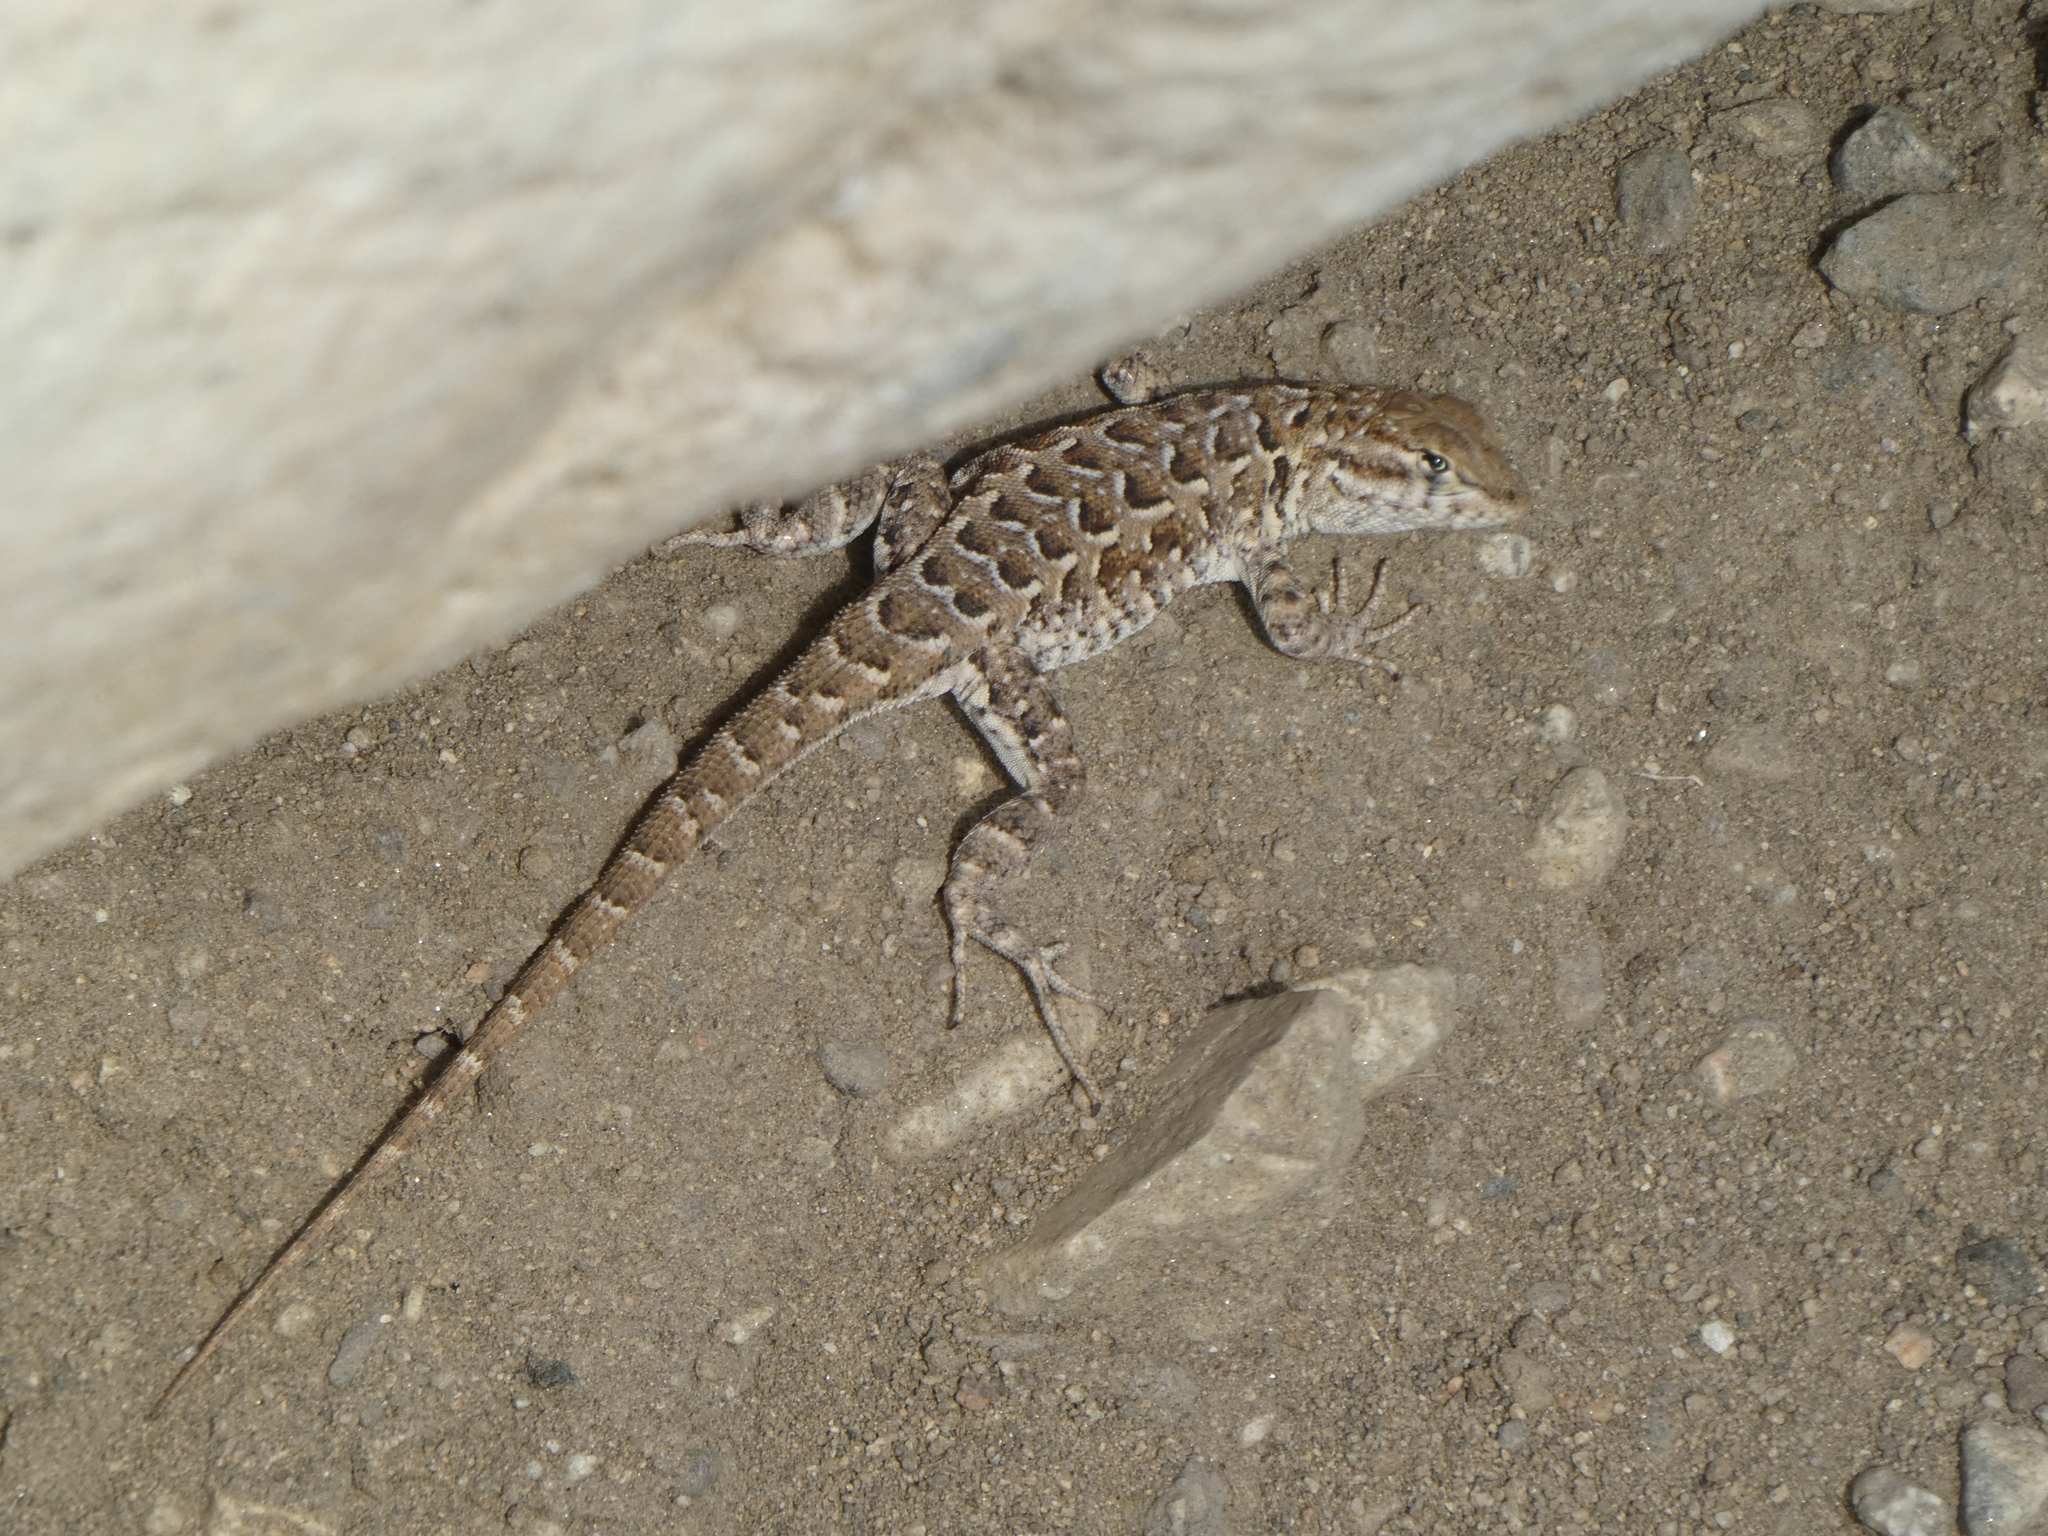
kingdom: Animalia
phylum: Chordata
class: Squamata
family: Phrynosomatidae
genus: Uta
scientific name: Uta stansburiana
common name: Side-blotched lizard
